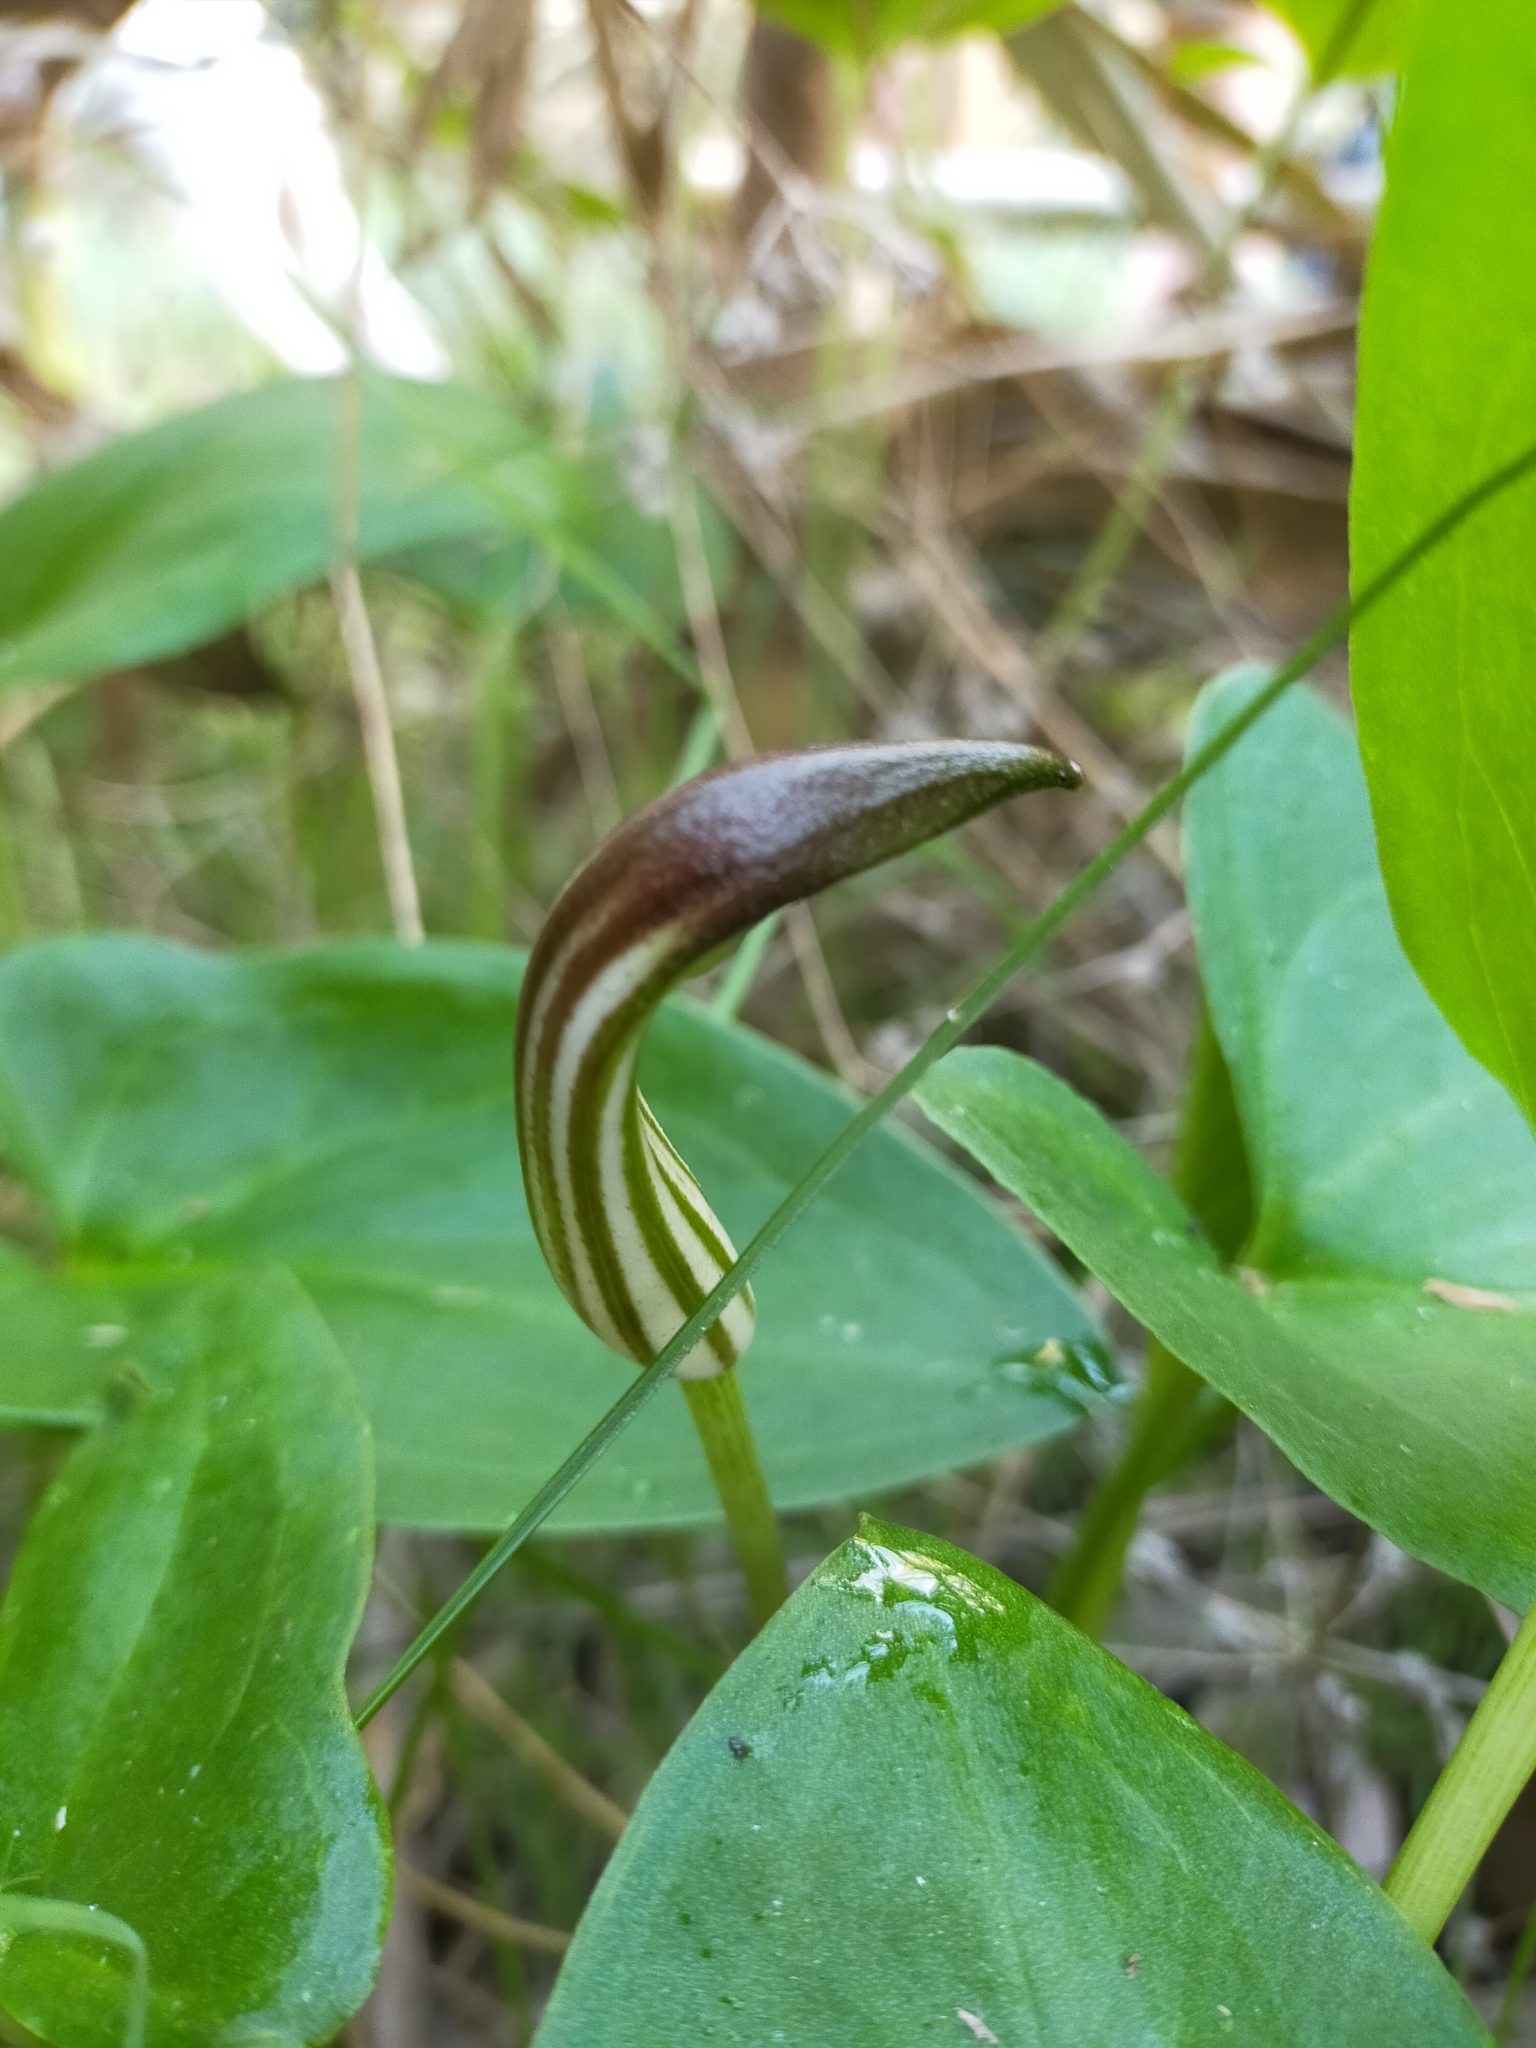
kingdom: Plantae
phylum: Tracheophyta
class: Liliopsida
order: Alismatales
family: Araceae
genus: Arisarum
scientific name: Arisarum vulgare
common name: Common arisarum
